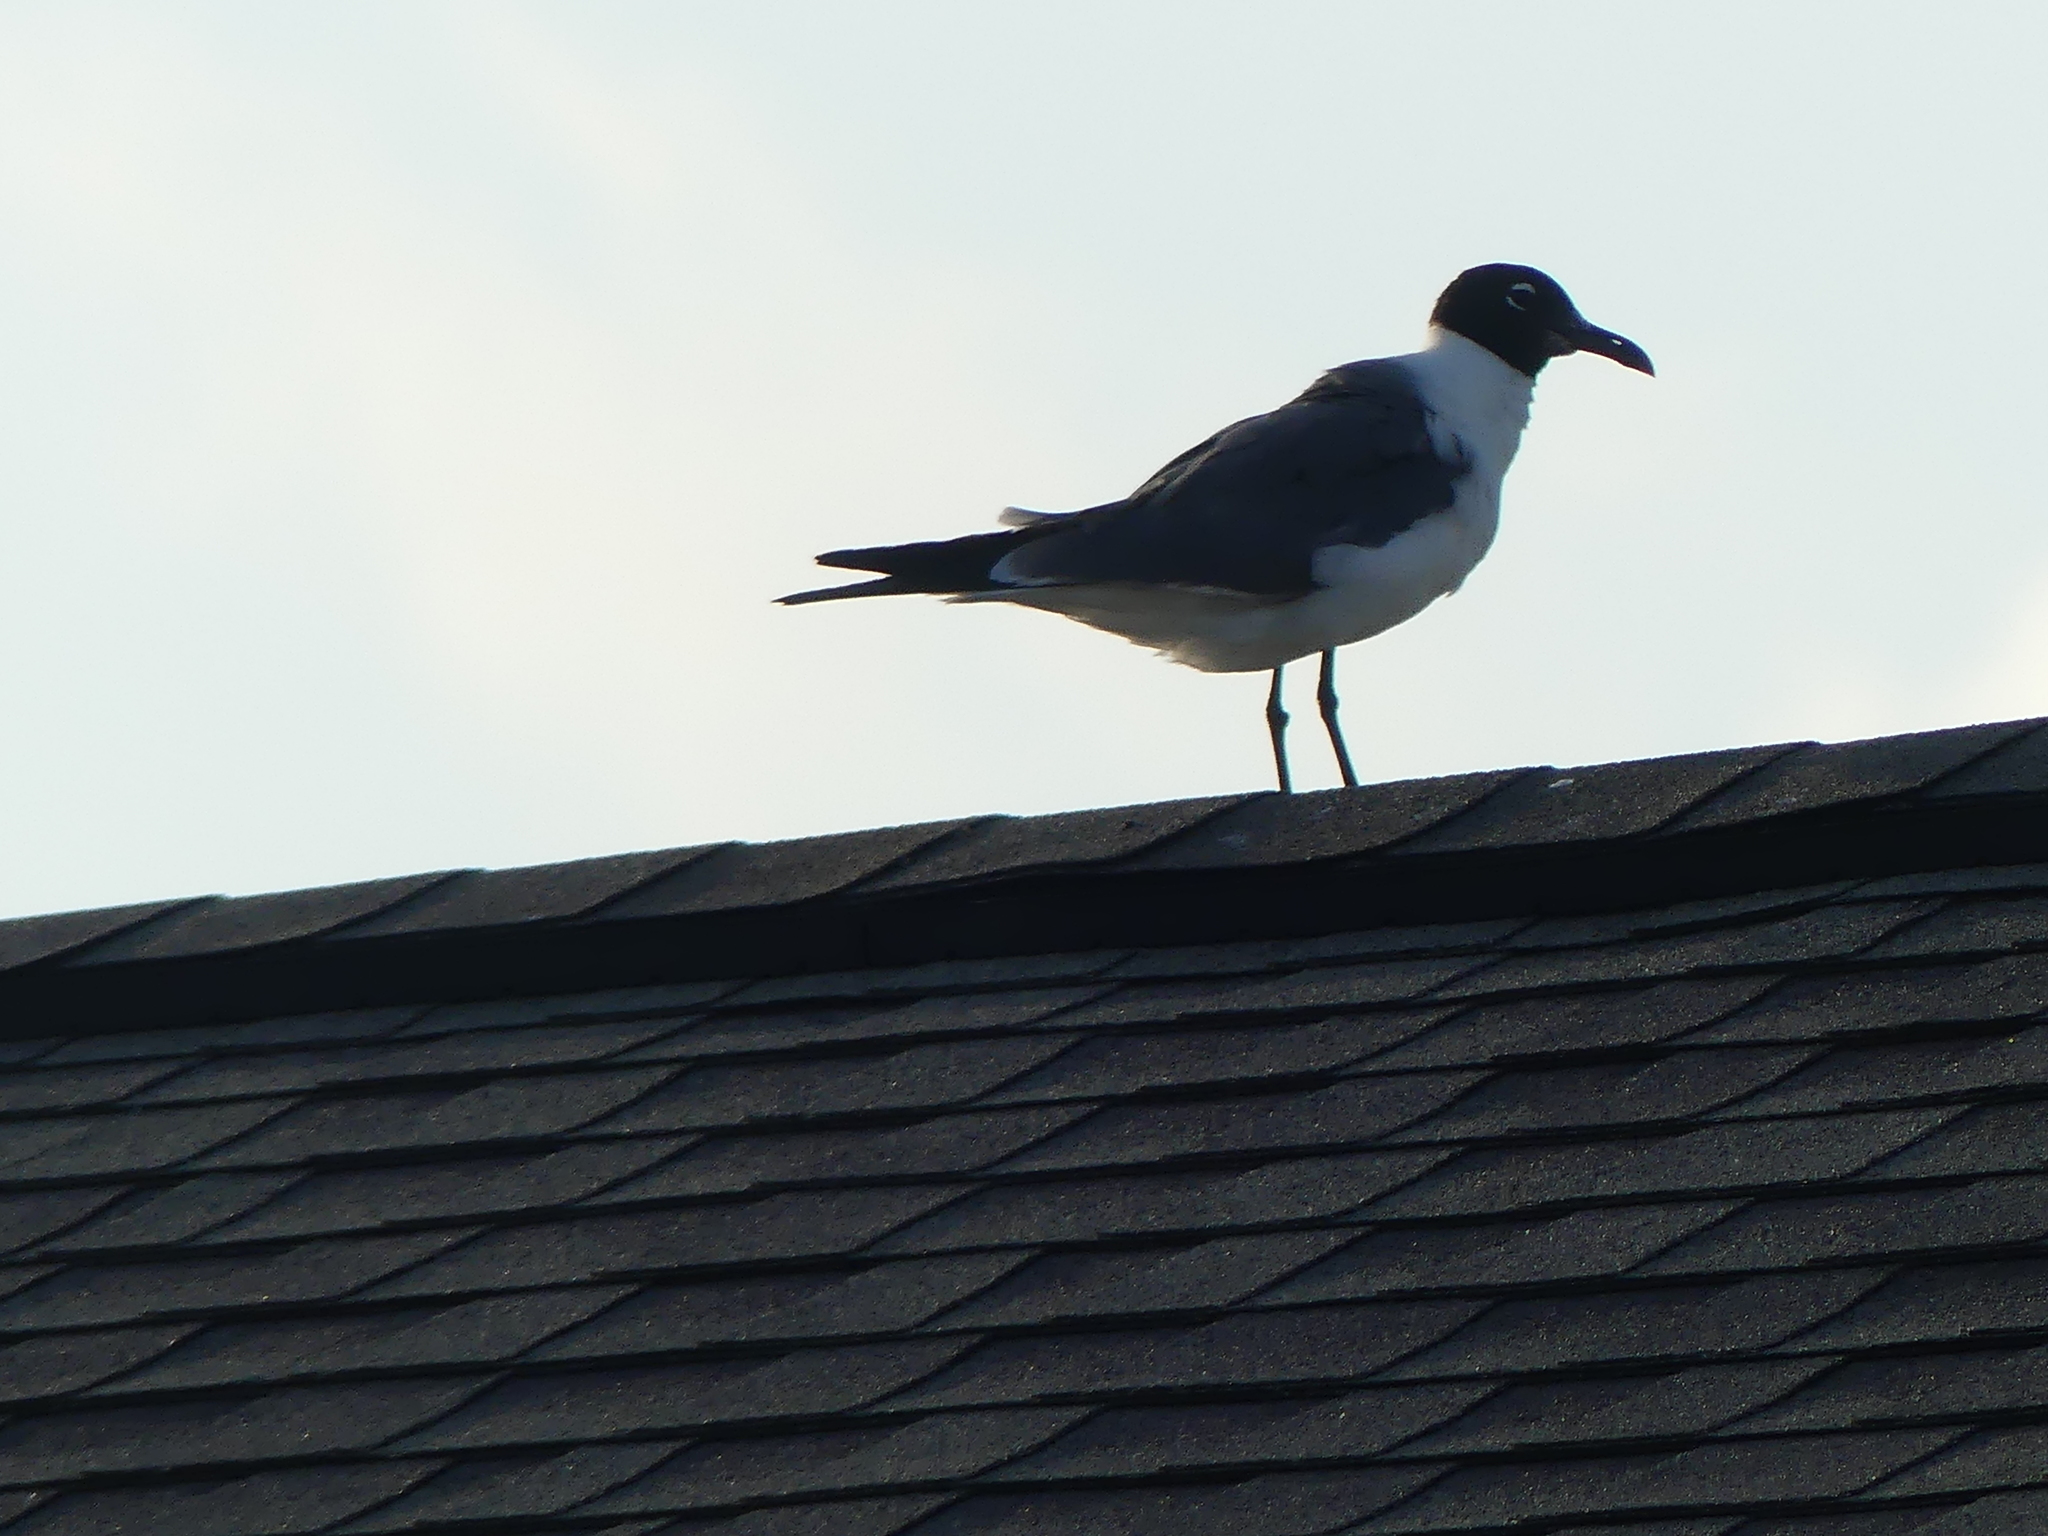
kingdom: Animalia
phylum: Chordata
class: Aves
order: Charadriiformes
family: Laridae
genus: Leucophaeus
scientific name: Leucophaeus atricilla
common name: Laughing gull
